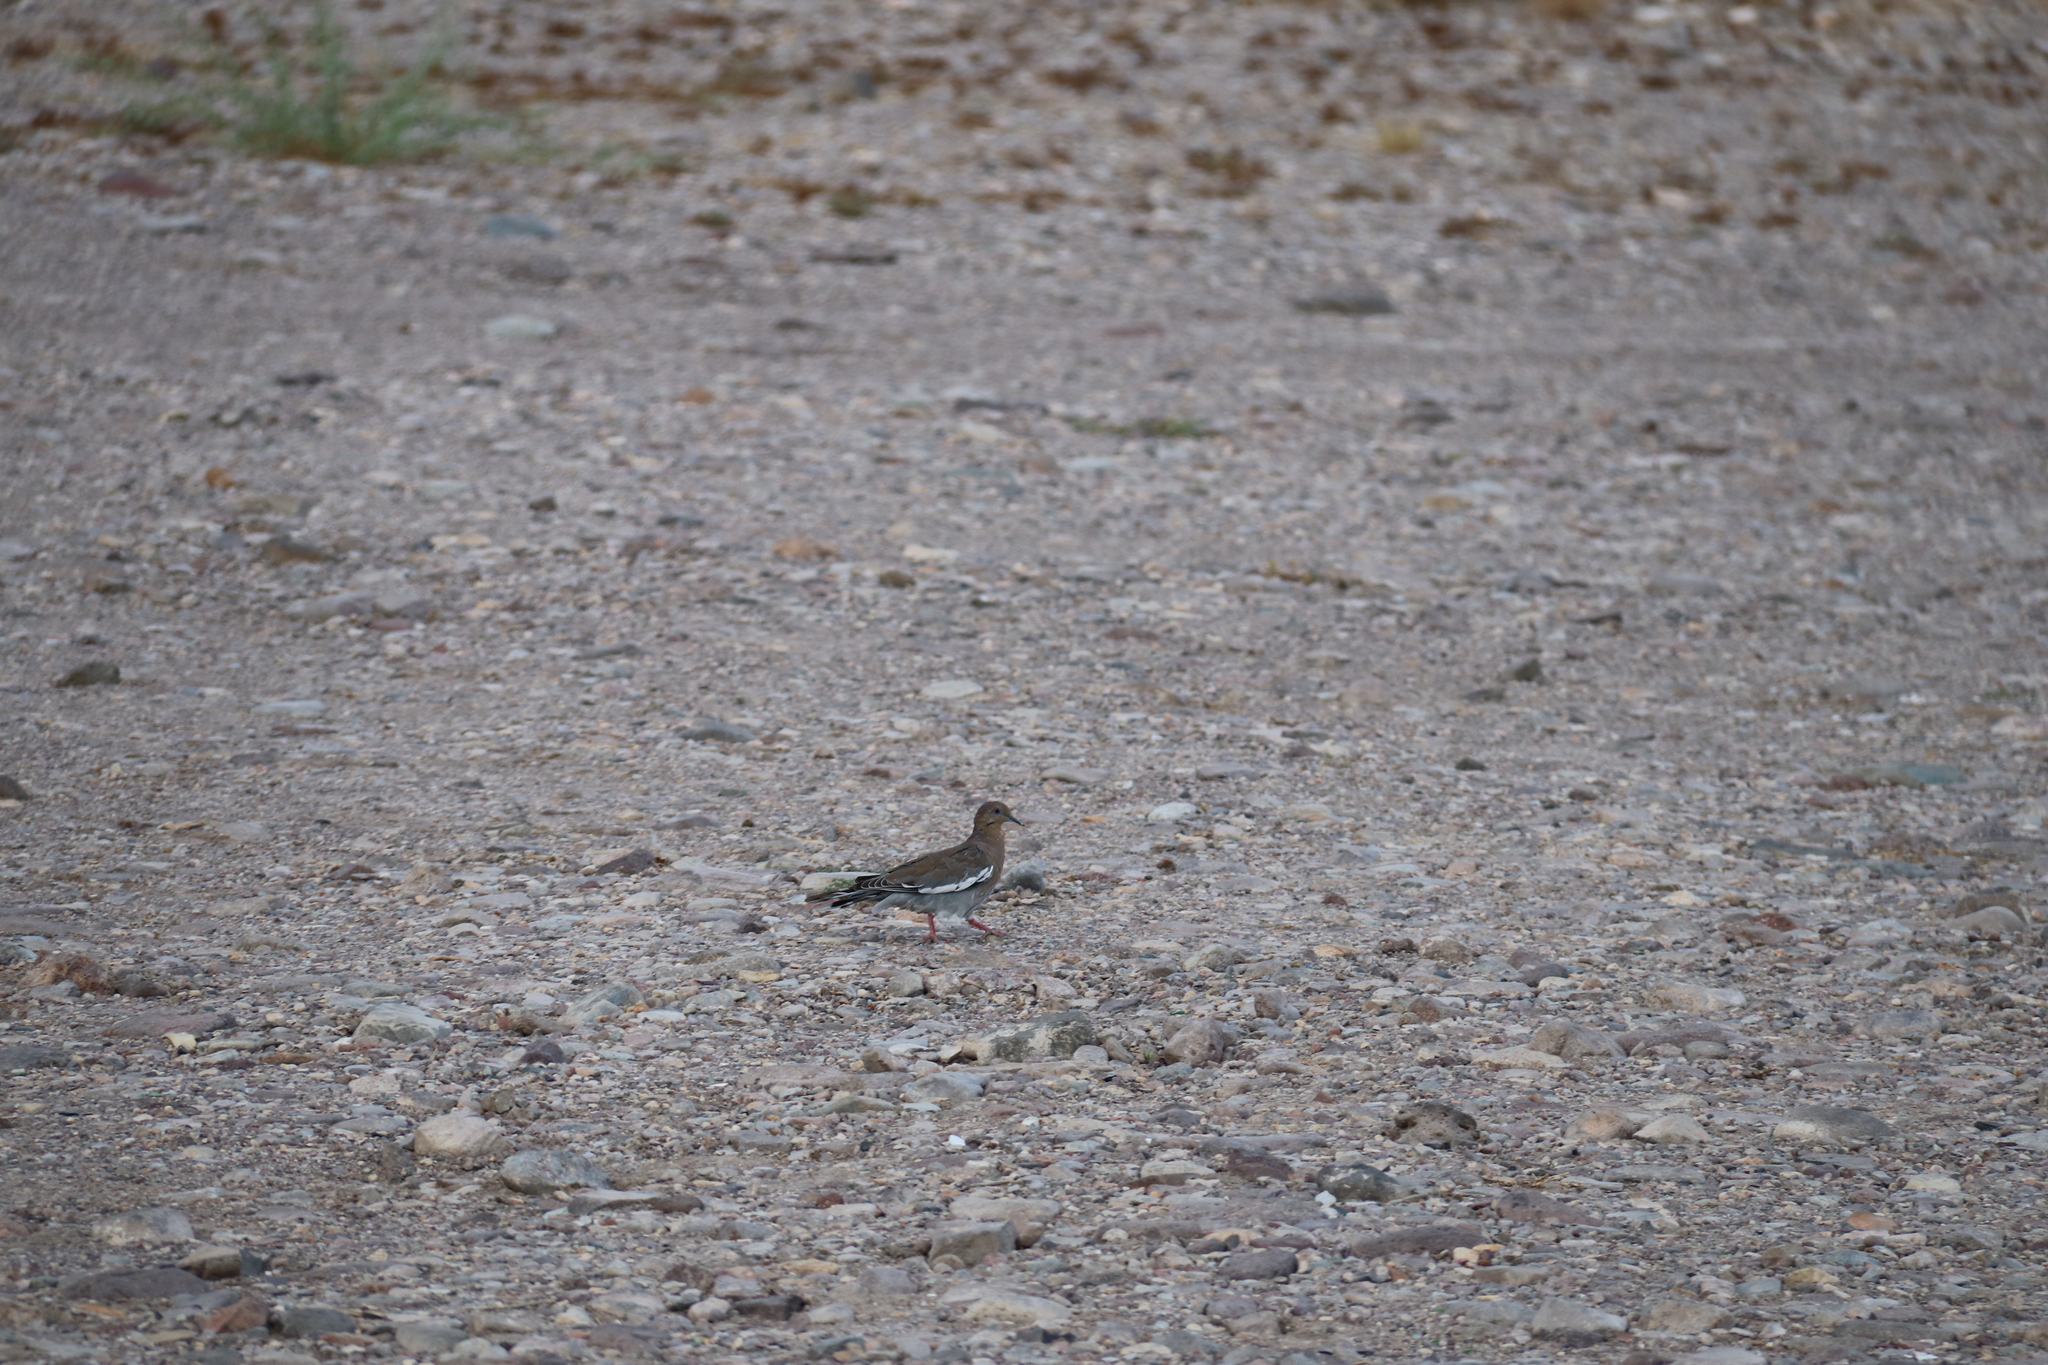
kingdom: Animalia
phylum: Chordata
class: Aves
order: Columbiformes
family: Columbidae
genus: Zenaida
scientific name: Zenaida asiatica
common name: White-winged dove
